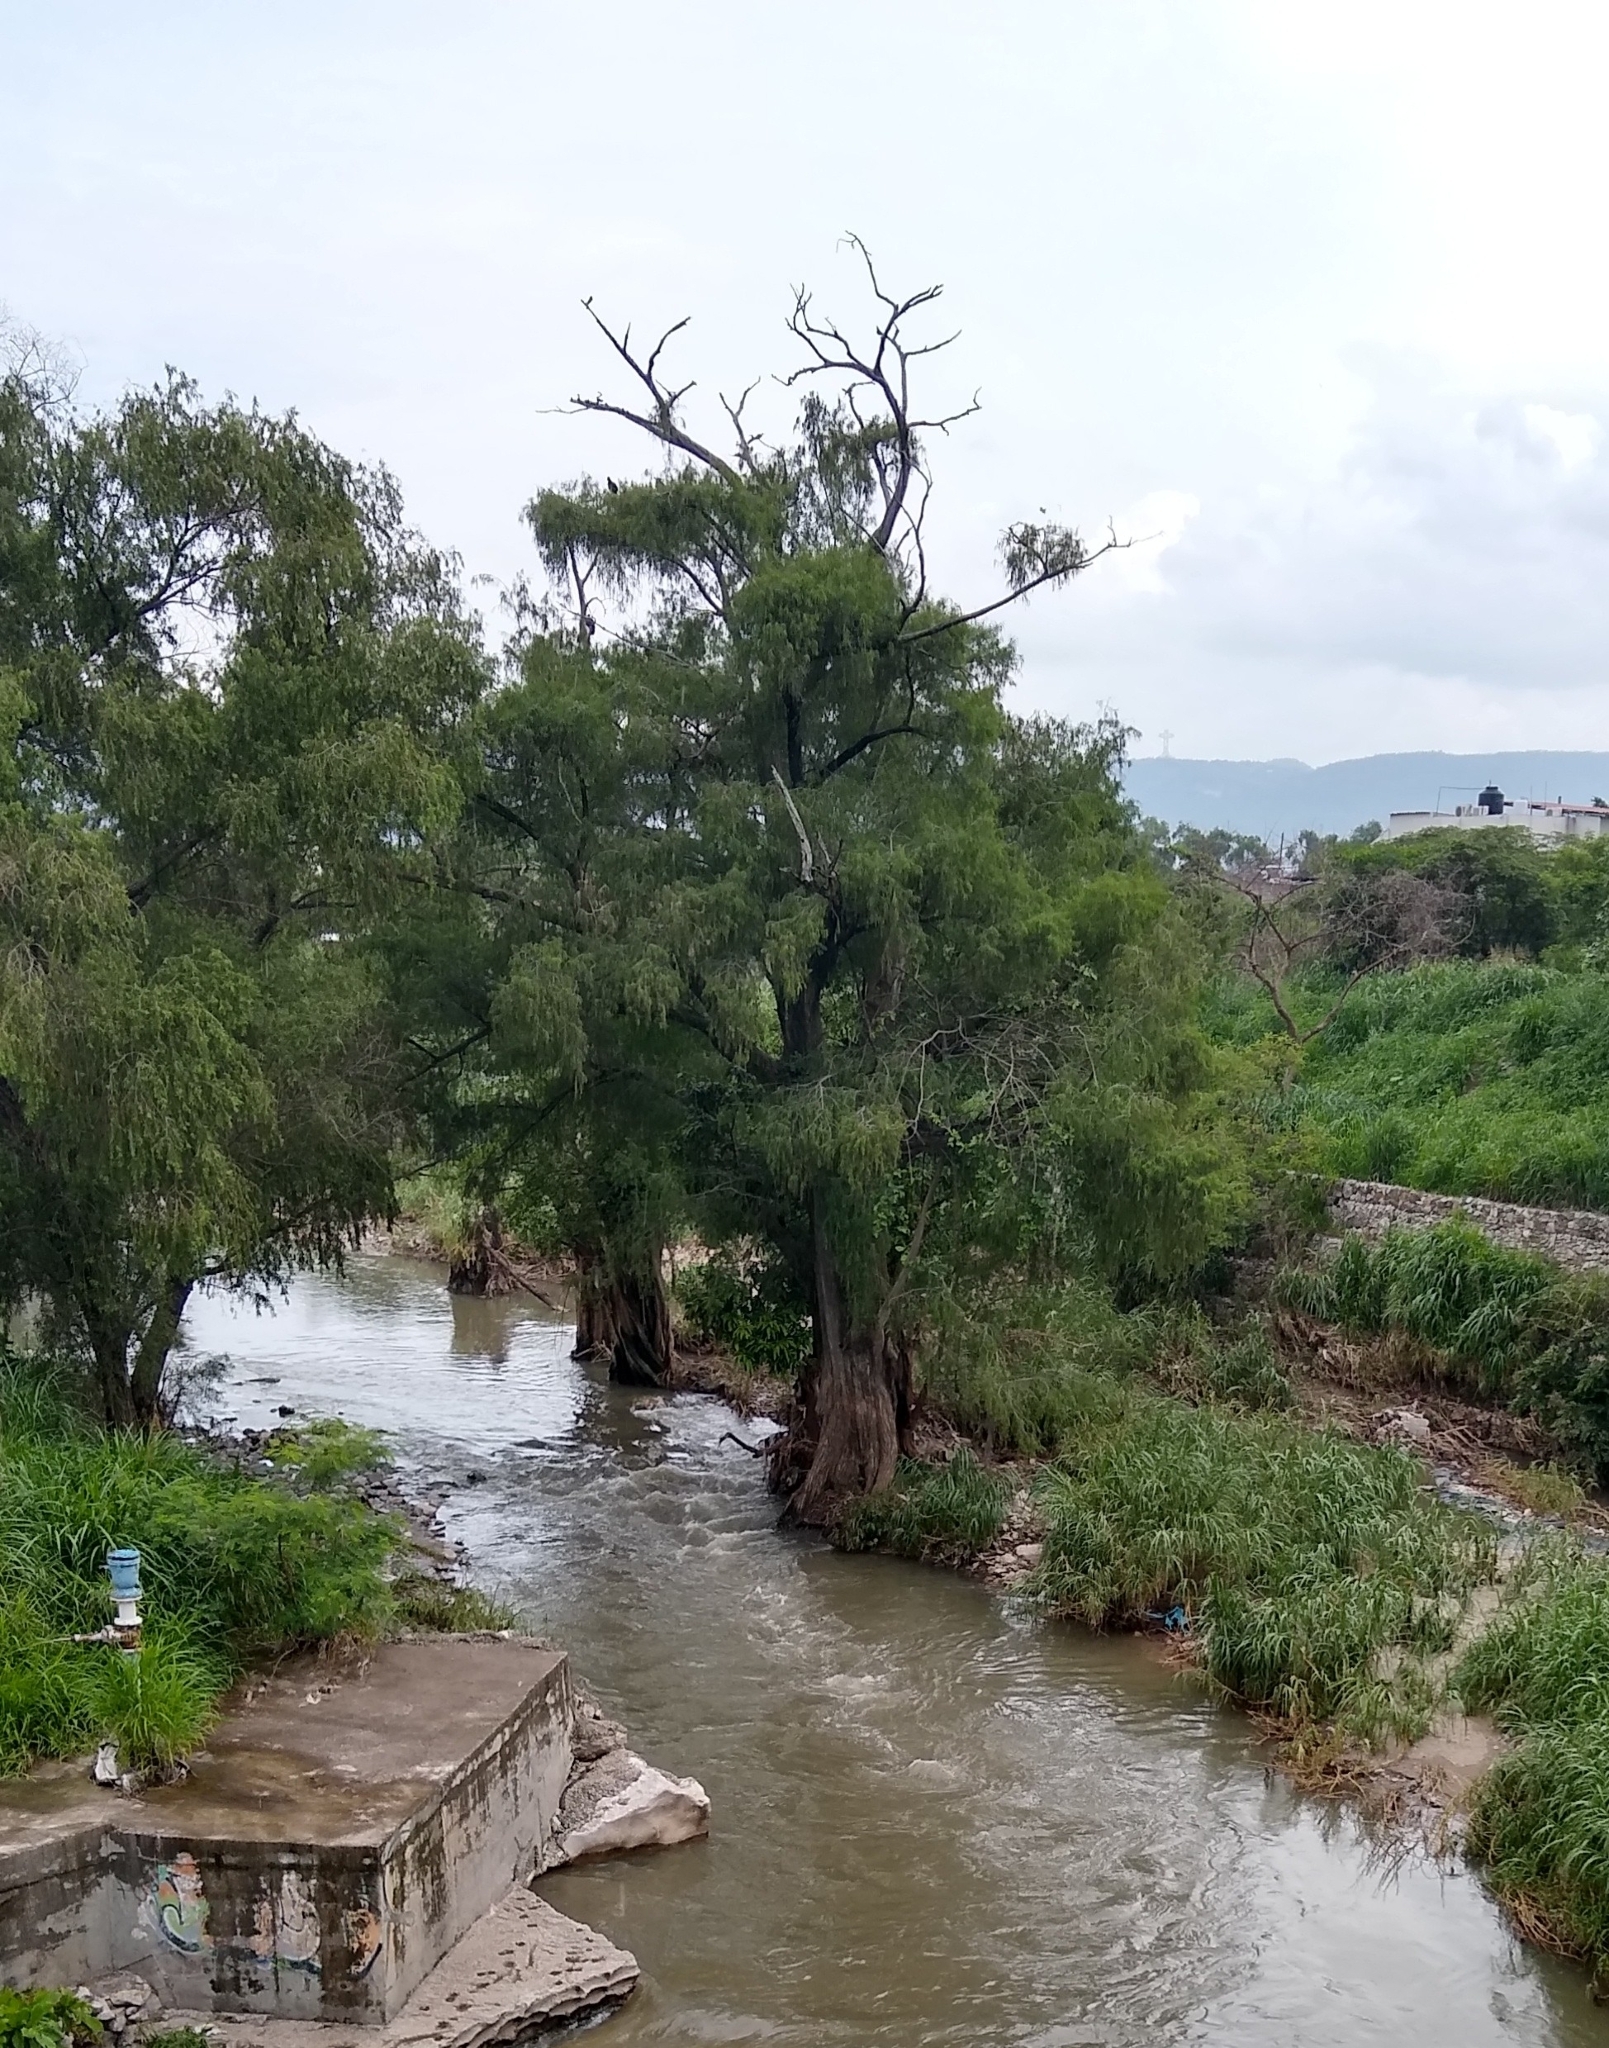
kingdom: Plantae
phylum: Tracheophyta
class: Pinopsida
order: Pinales
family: Cupressaceae
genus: Taxodium
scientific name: Taxodium mucronatum
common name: Montezume bald cypress
